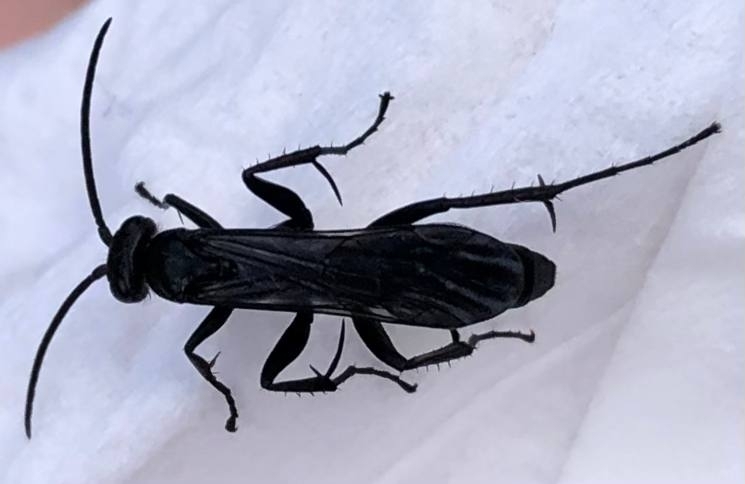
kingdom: Animalia
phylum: Arthropoda
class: Insecta
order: Hymenoptera
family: Pompilidae
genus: Anoplius
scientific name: Anoplius nigerrimus
